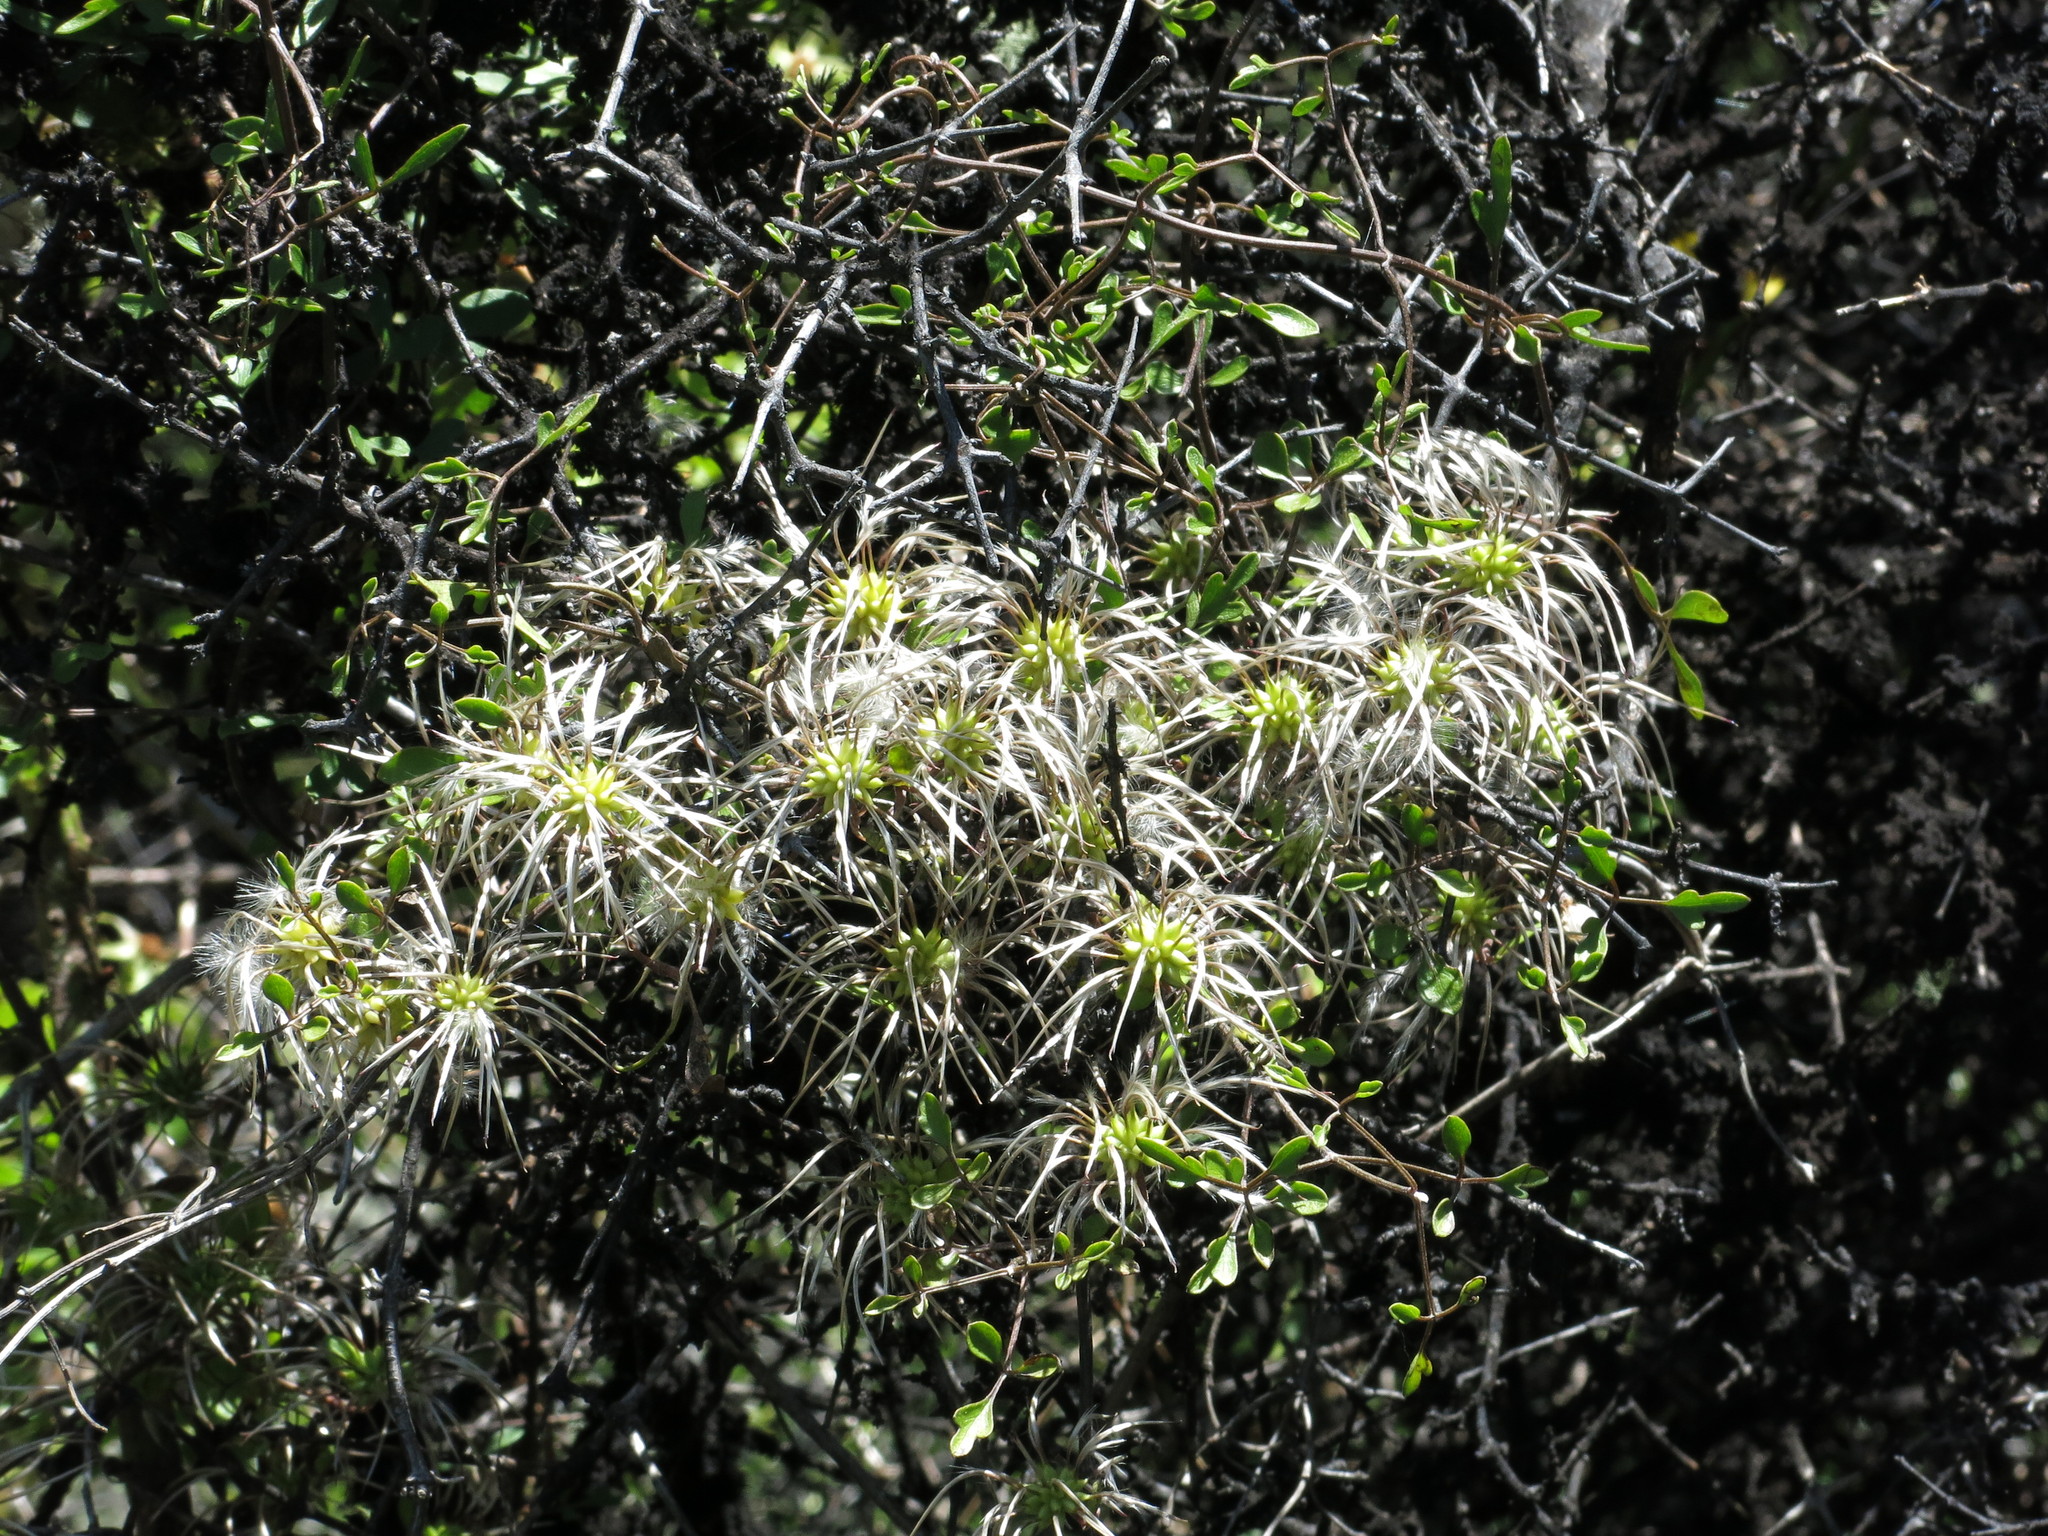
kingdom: Plantae
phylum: Tracheophyta
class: Magnoliopsida
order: Ranunculales
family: Ranunculaceae
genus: Clematis
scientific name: Clematis marata
